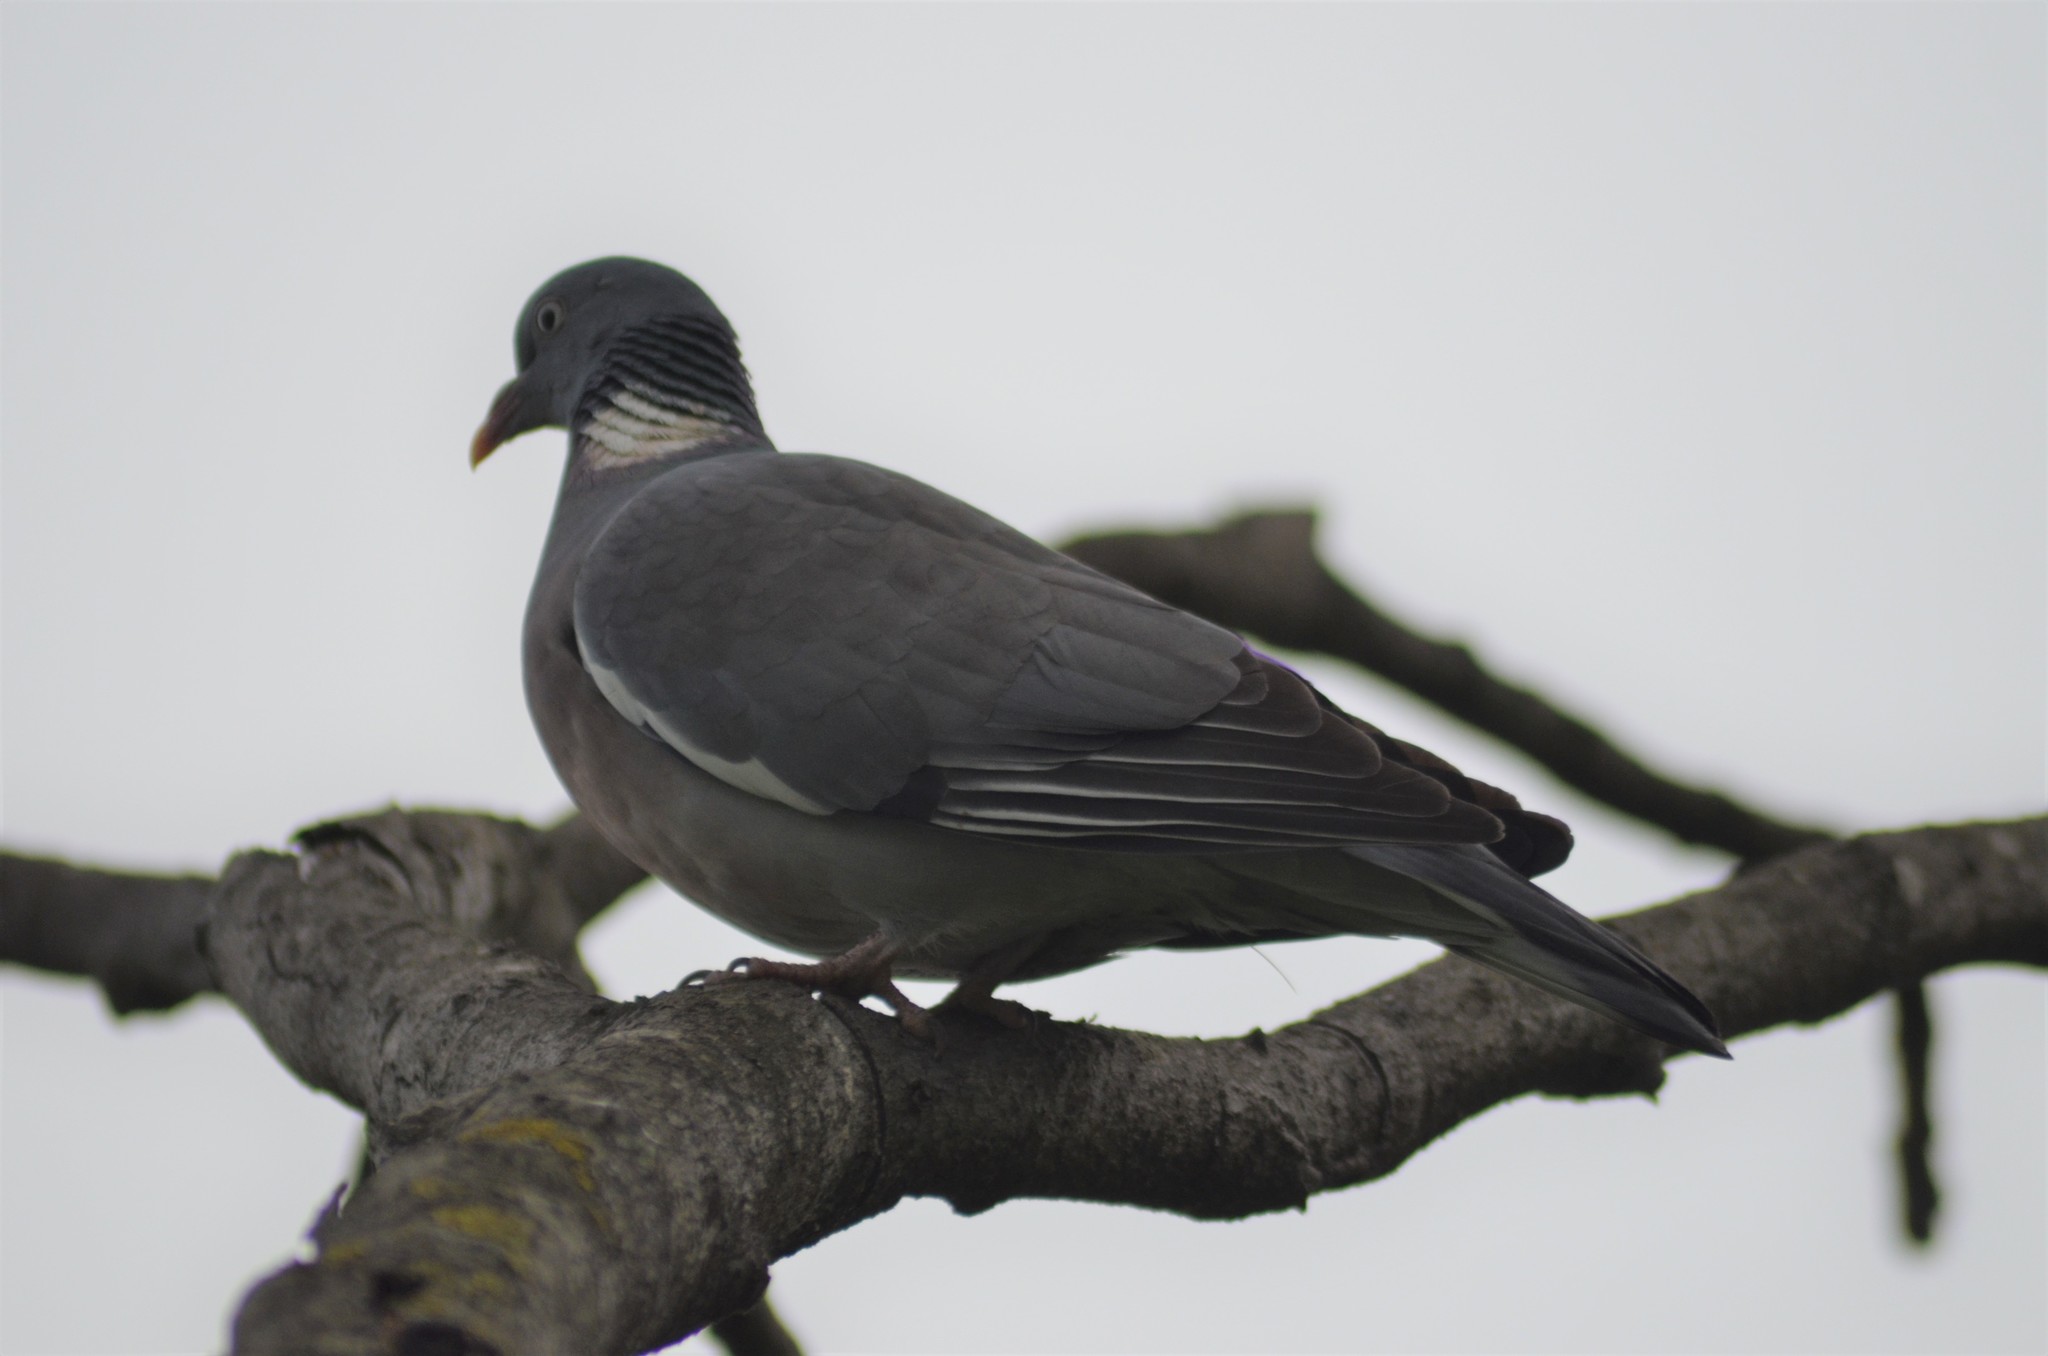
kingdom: Animalia
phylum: Chordata
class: Aves
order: Columbiformes
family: Columbidae
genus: Columba
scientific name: Columba palumbus
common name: Common wood pigeon
